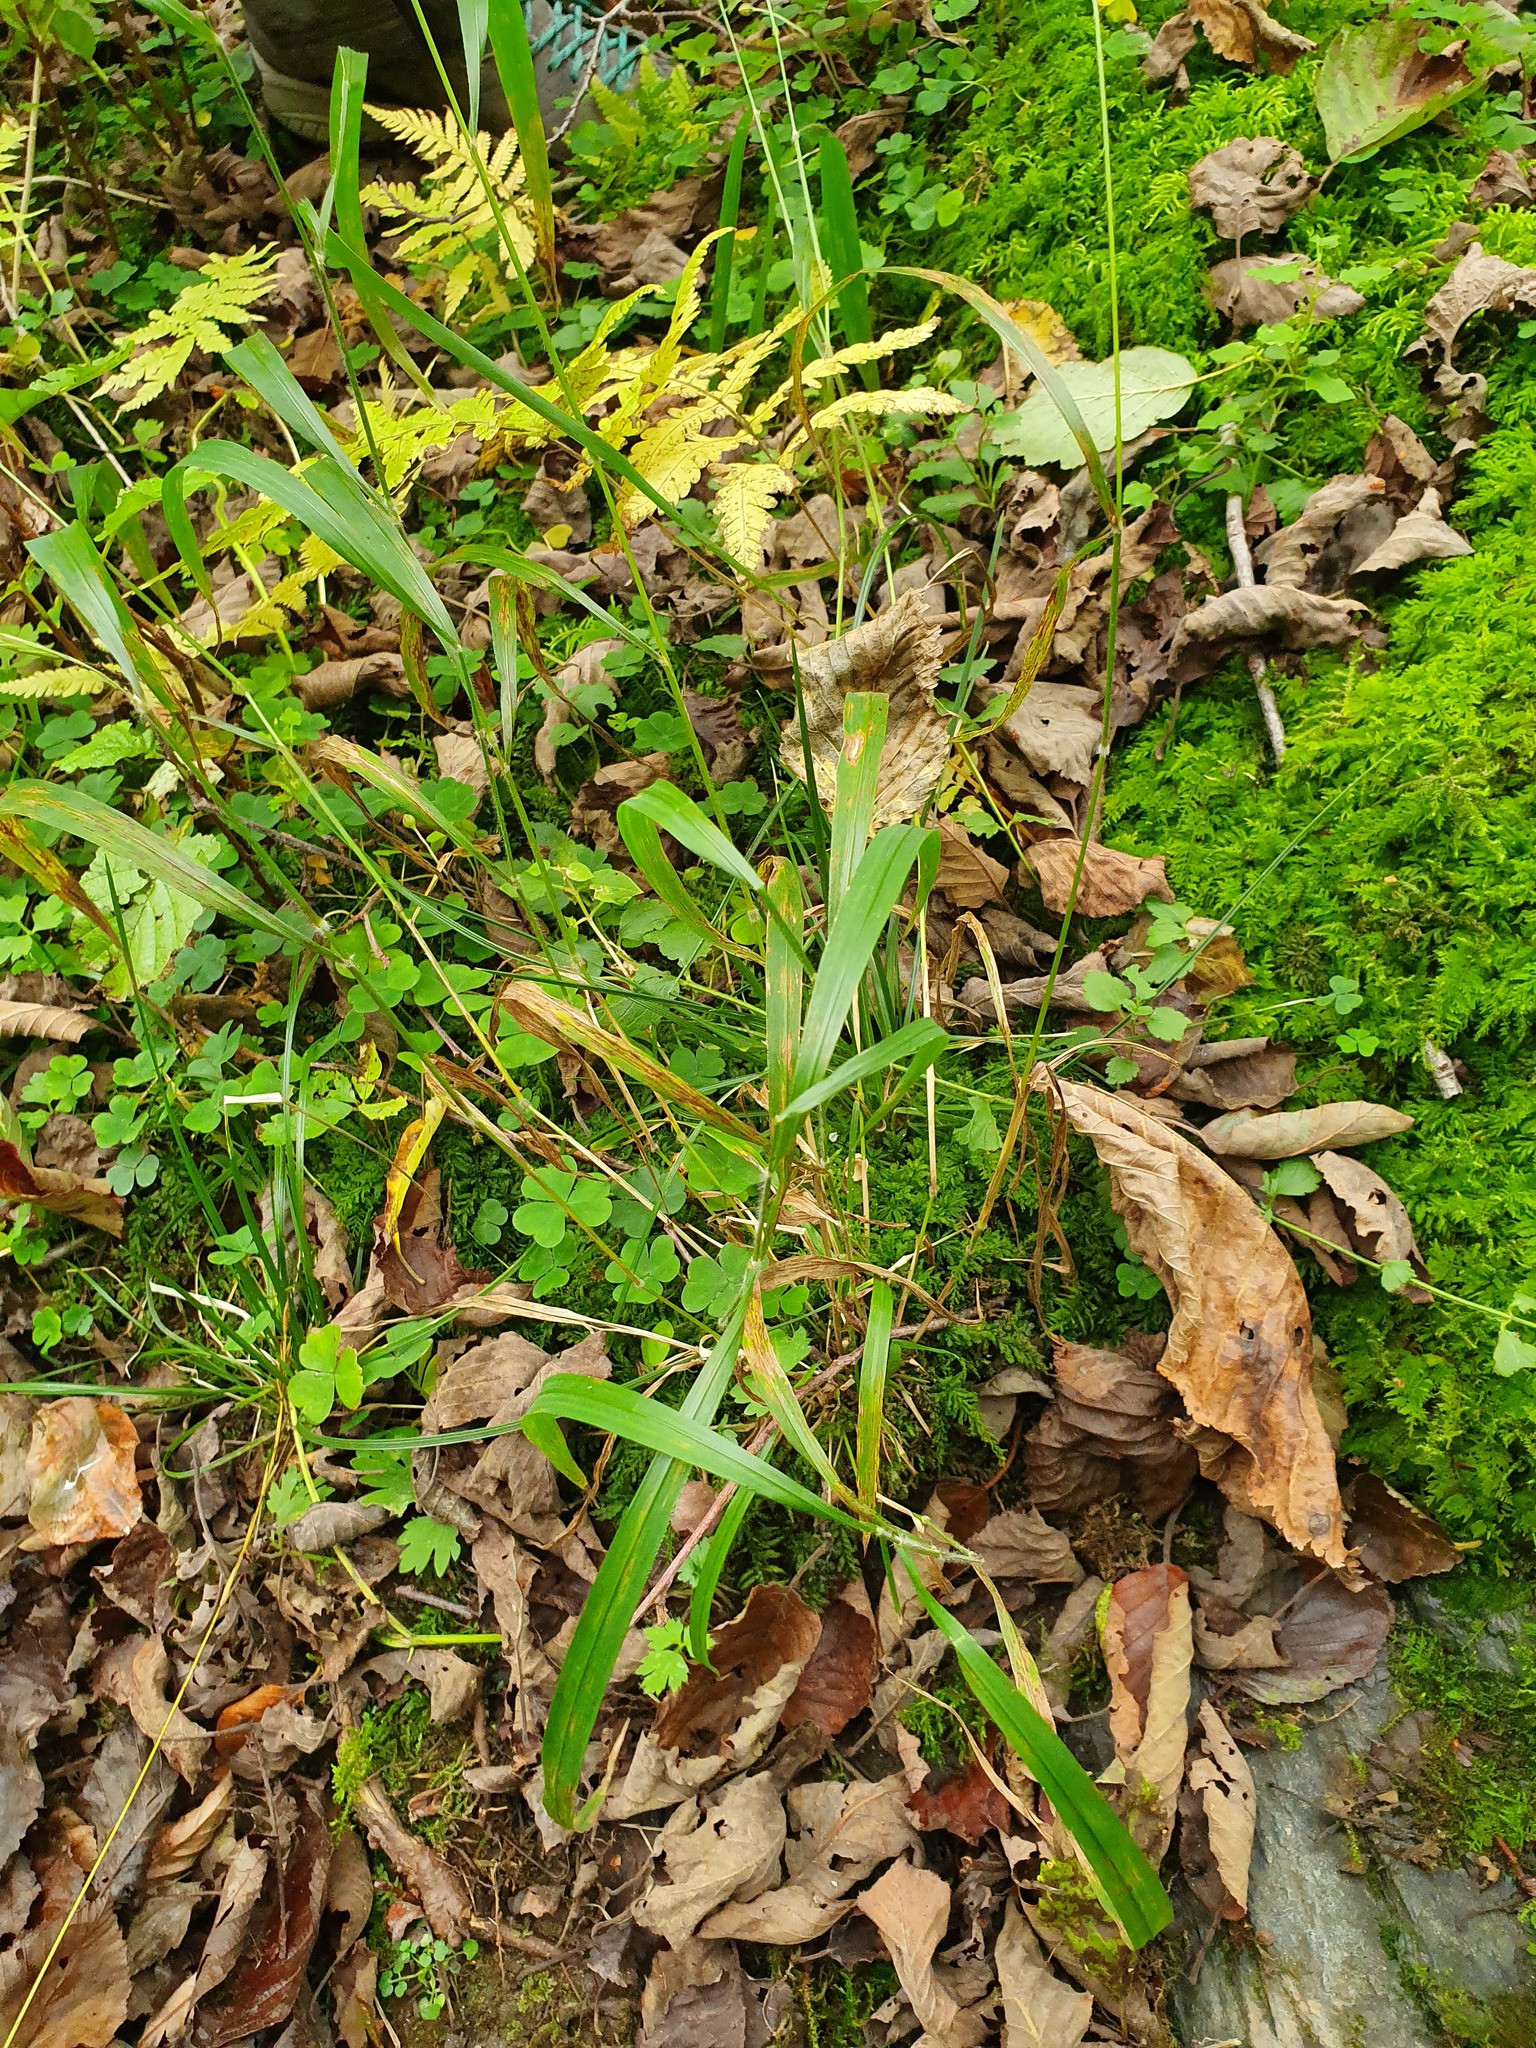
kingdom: Plantae
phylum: Tracheophyta
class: Liliopsida
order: Poales
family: Poaceae
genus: Brachypodium
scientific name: Brachypodium sylvaticum
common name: False-brome
